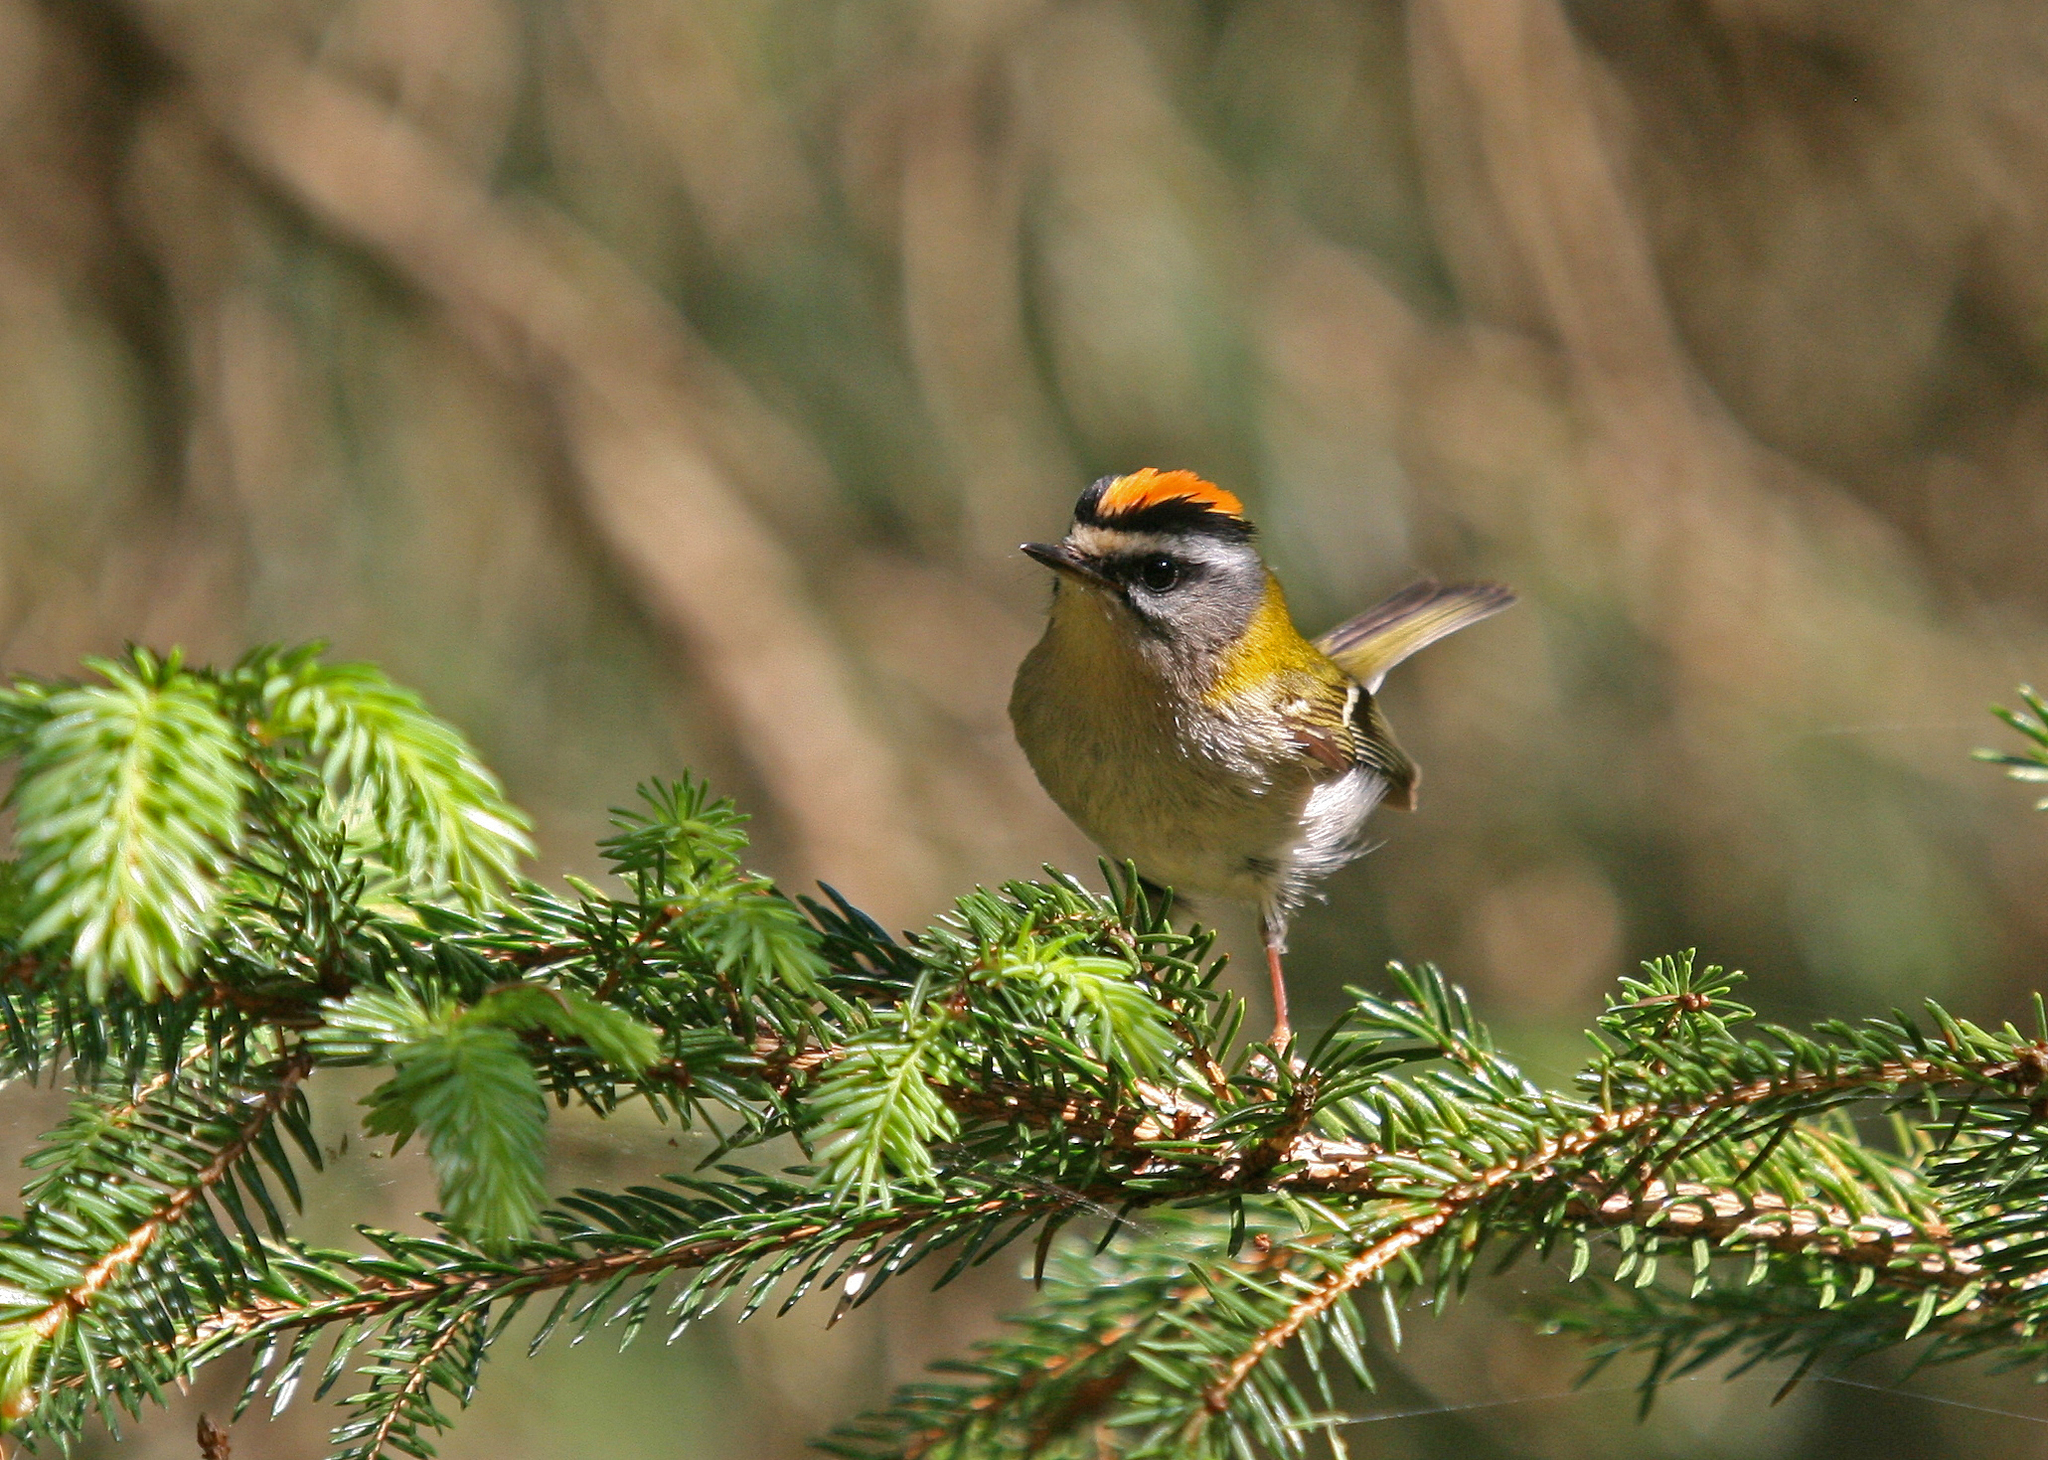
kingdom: Animalia
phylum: Chordata
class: Aves
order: Passeriformes
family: Regulidae
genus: Regulus
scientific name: Regulus ignicapilla
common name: Firecrest
